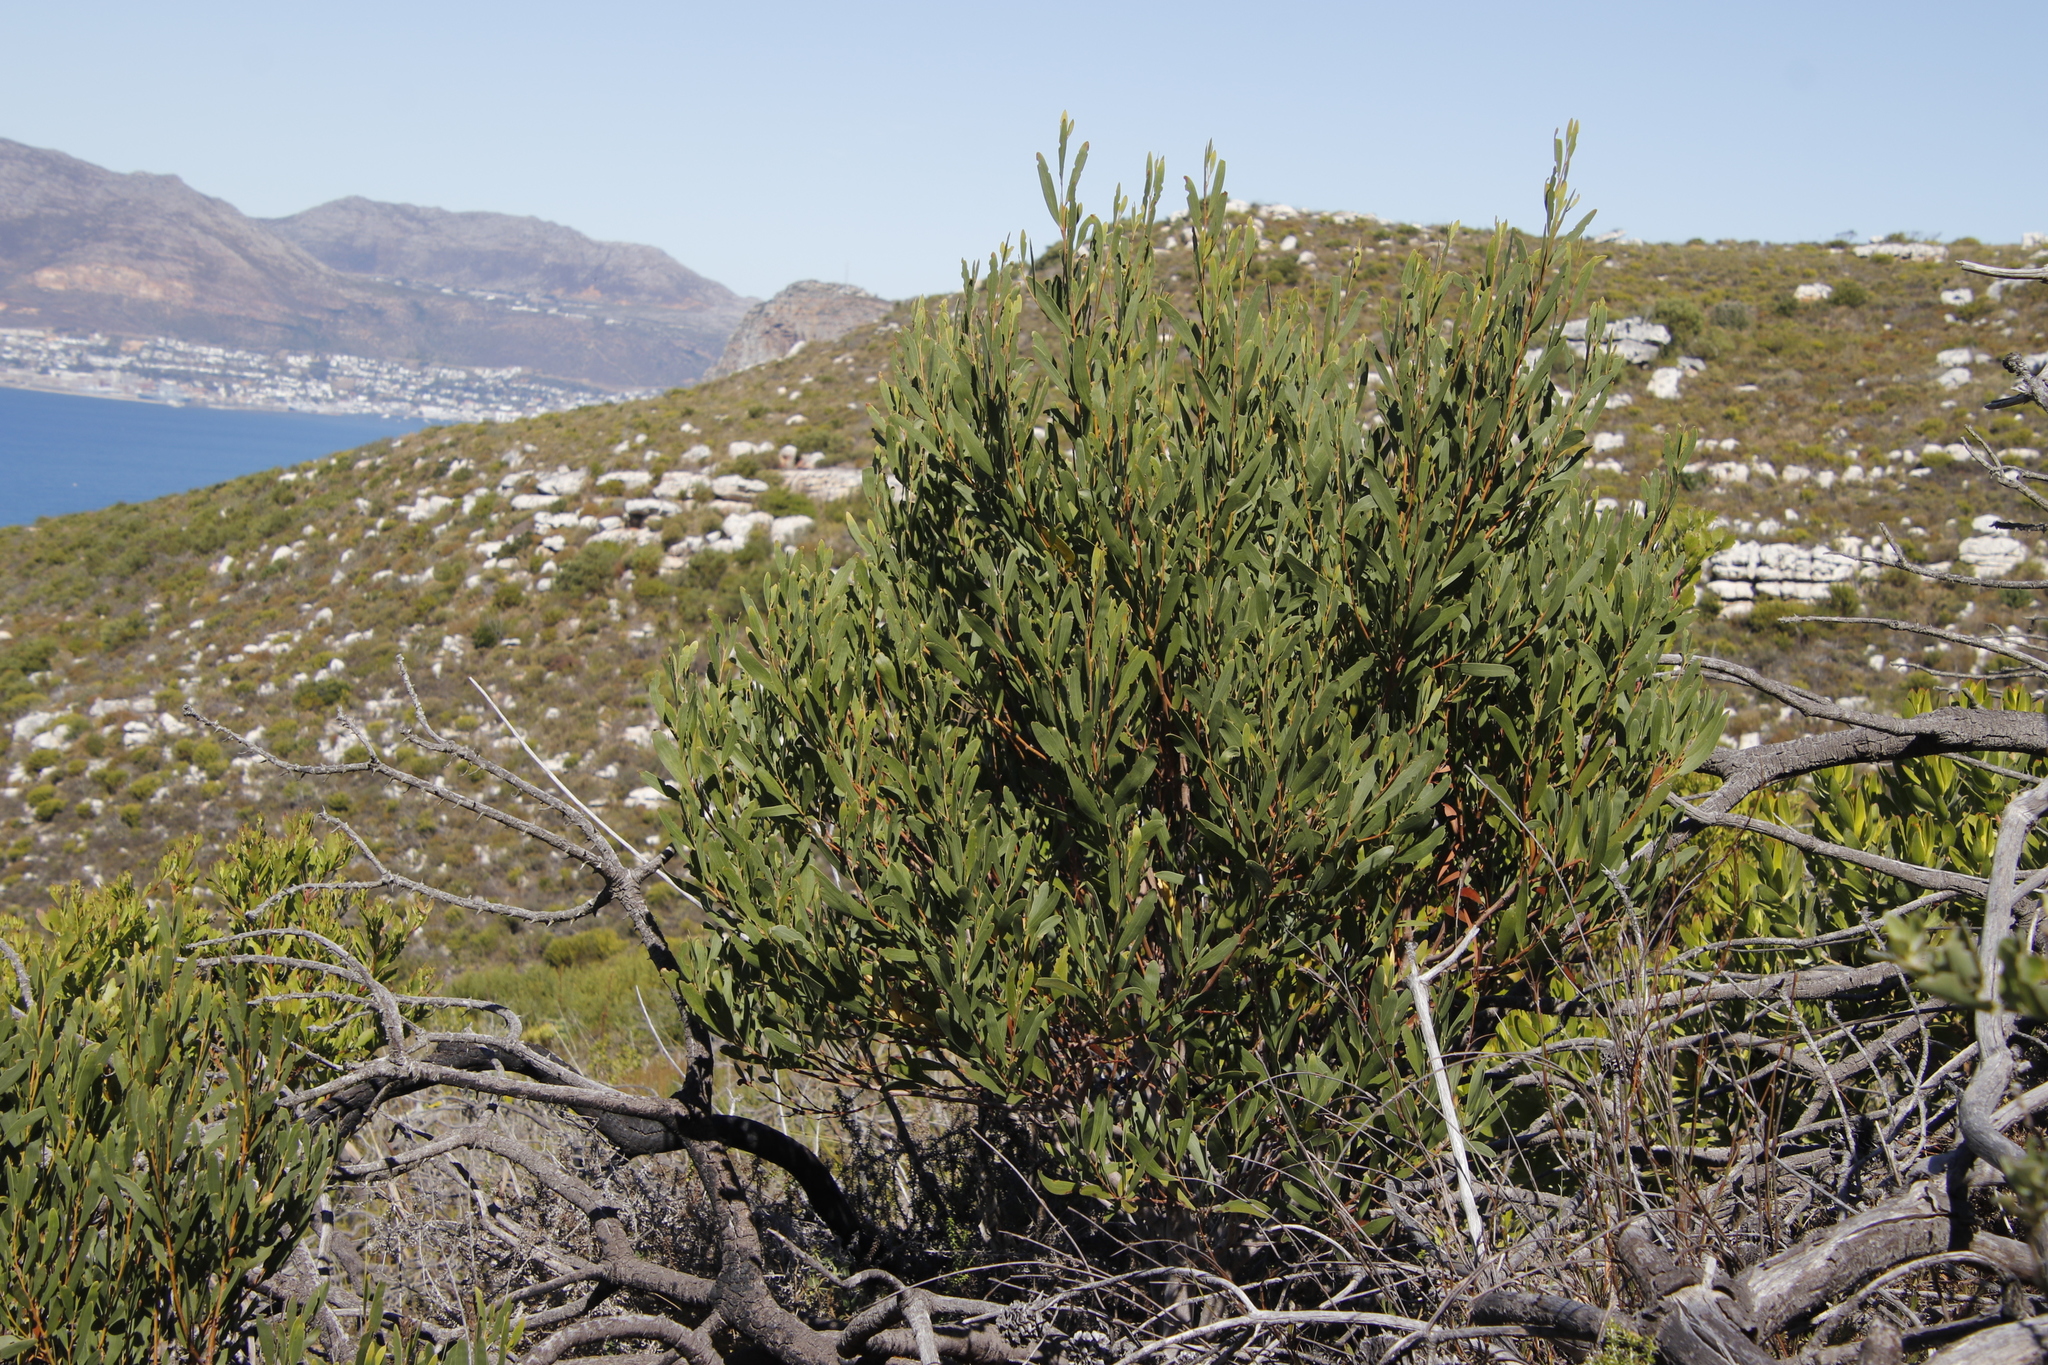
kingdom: Plantae
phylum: Tracheophyta
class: Magnoliopsida
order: Fabales
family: Fabaceae
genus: Acacia
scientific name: Acacia cyclops
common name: Coastal wattle
